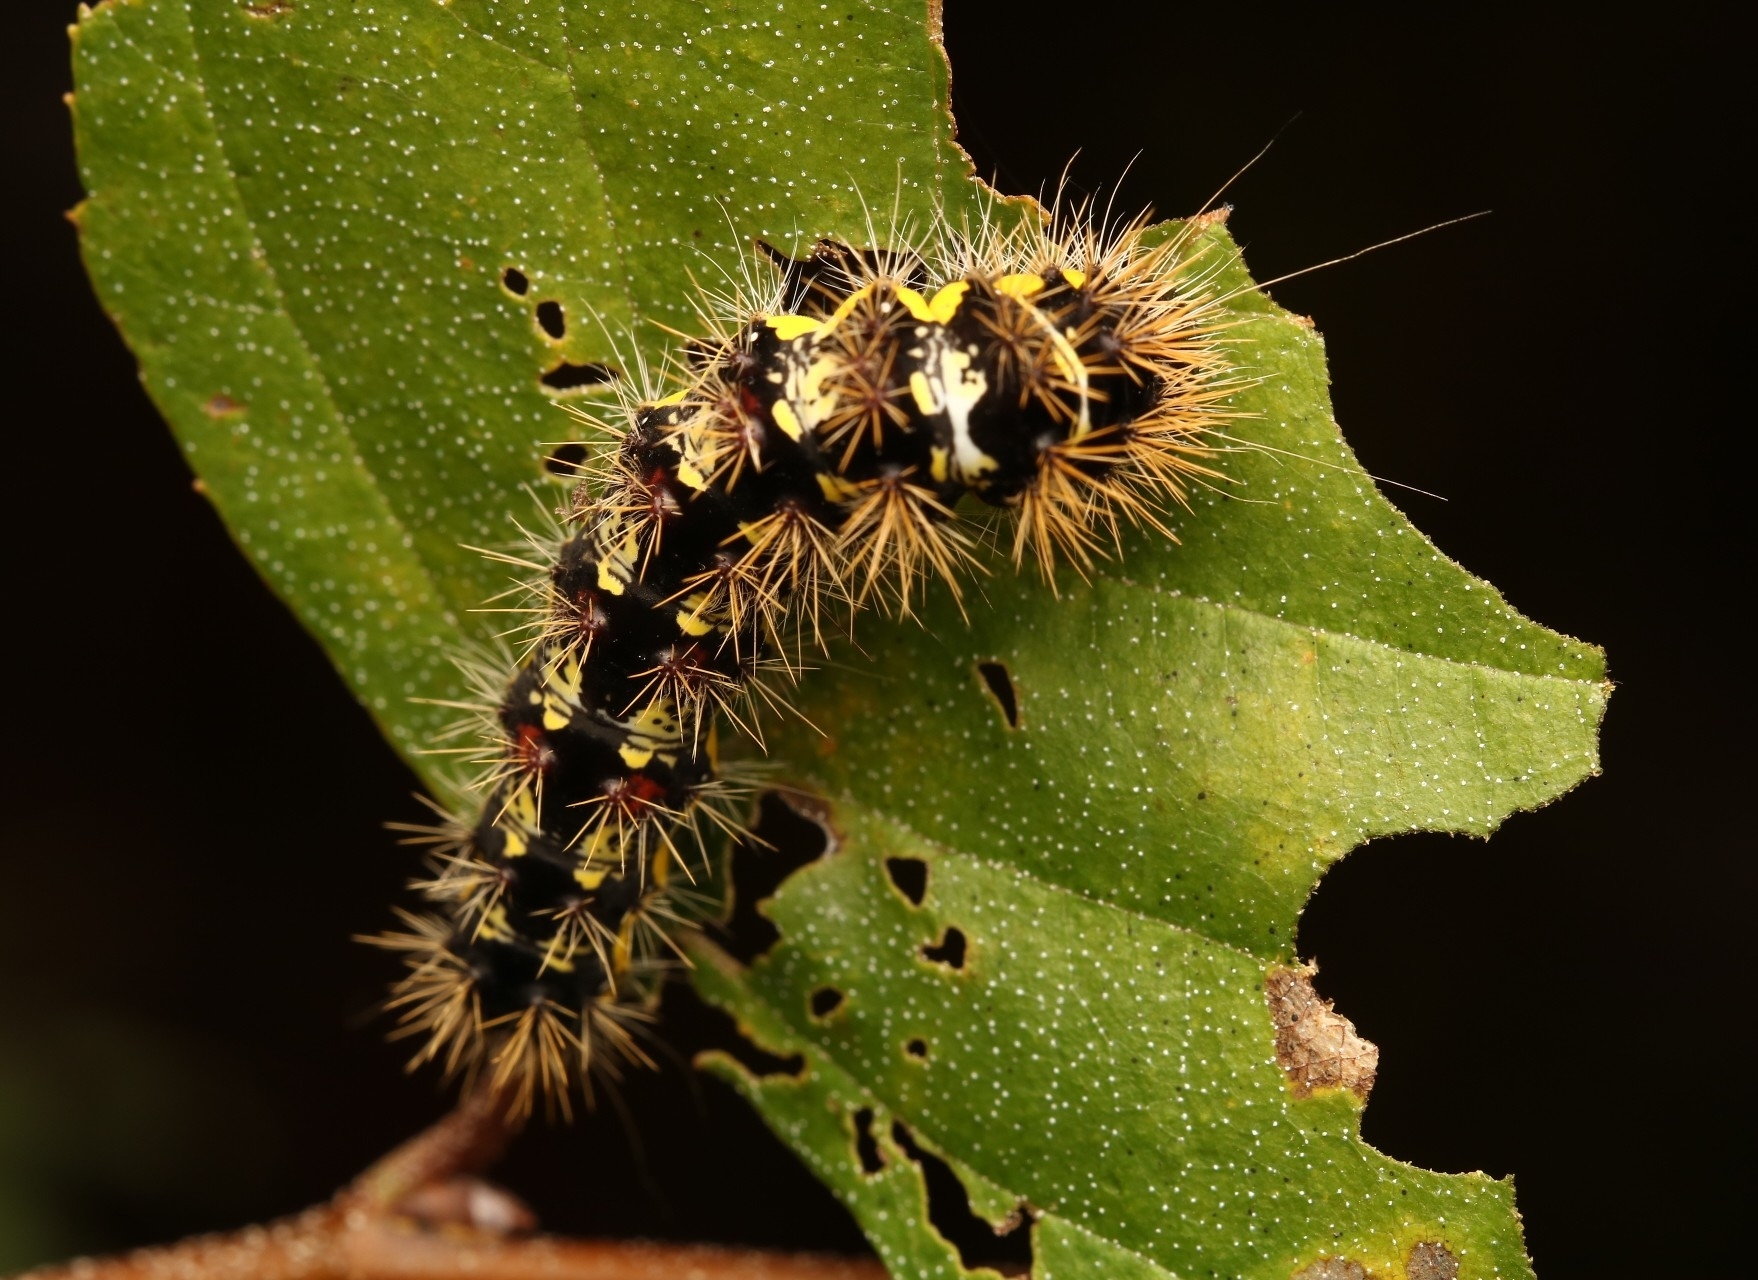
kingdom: Animalia
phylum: Arthropoda
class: Insecta
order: Lepidoptera
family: Noctuidae
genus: Acronicta
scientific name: Acronicta oblinita
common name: Smeared dagger
